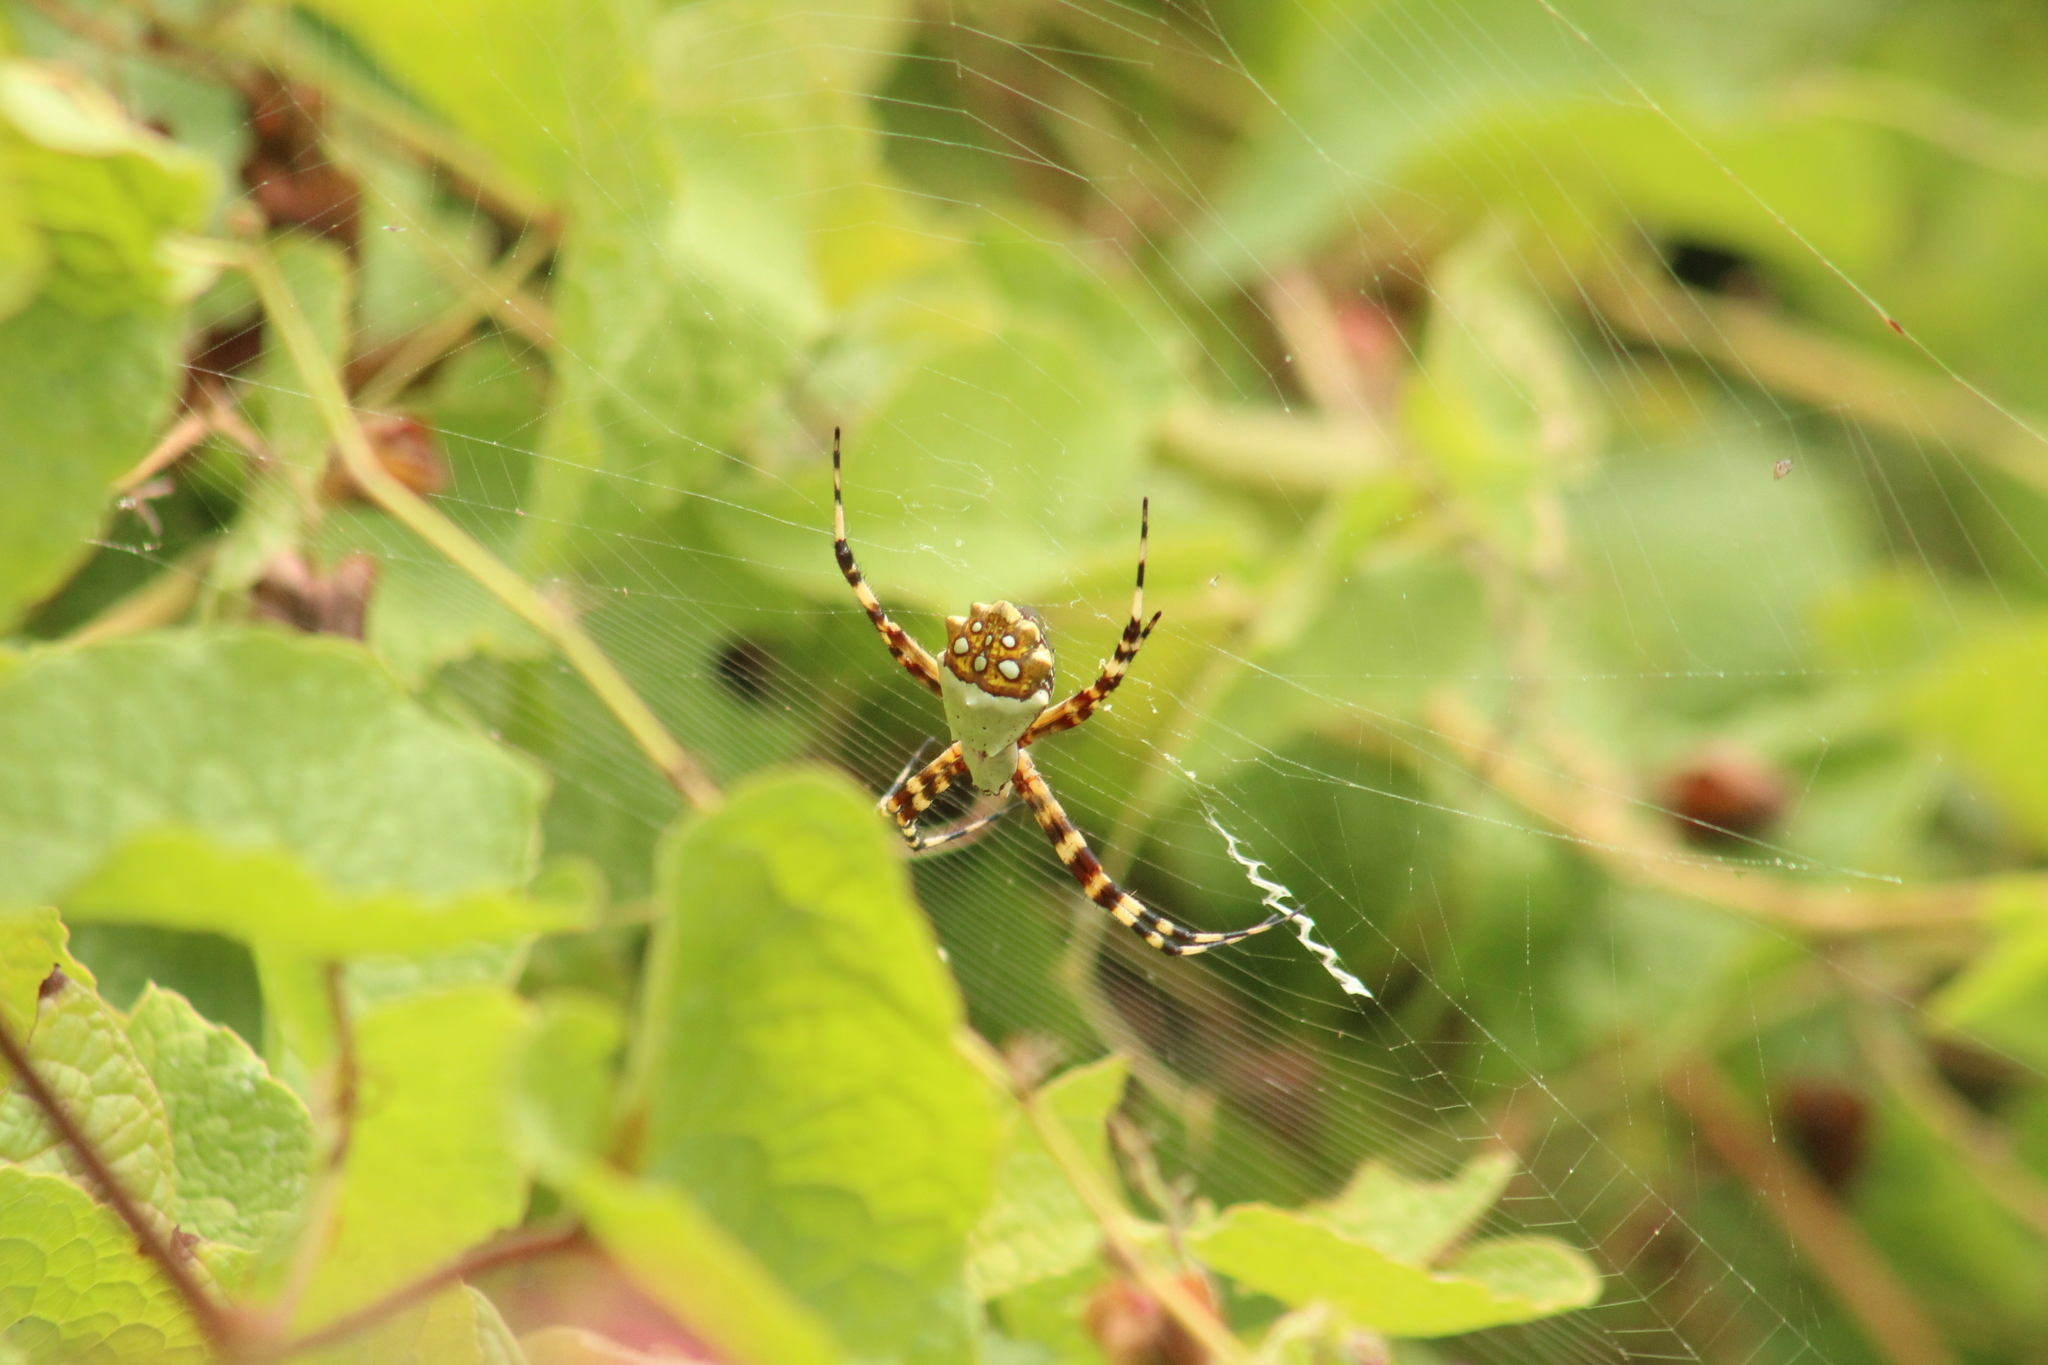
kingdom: Animalia
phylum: Arthropoda
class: Arachnida
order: Araneae
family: Araneidae
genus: Argiope
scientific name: Argiope argentata
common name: Orb weavers
